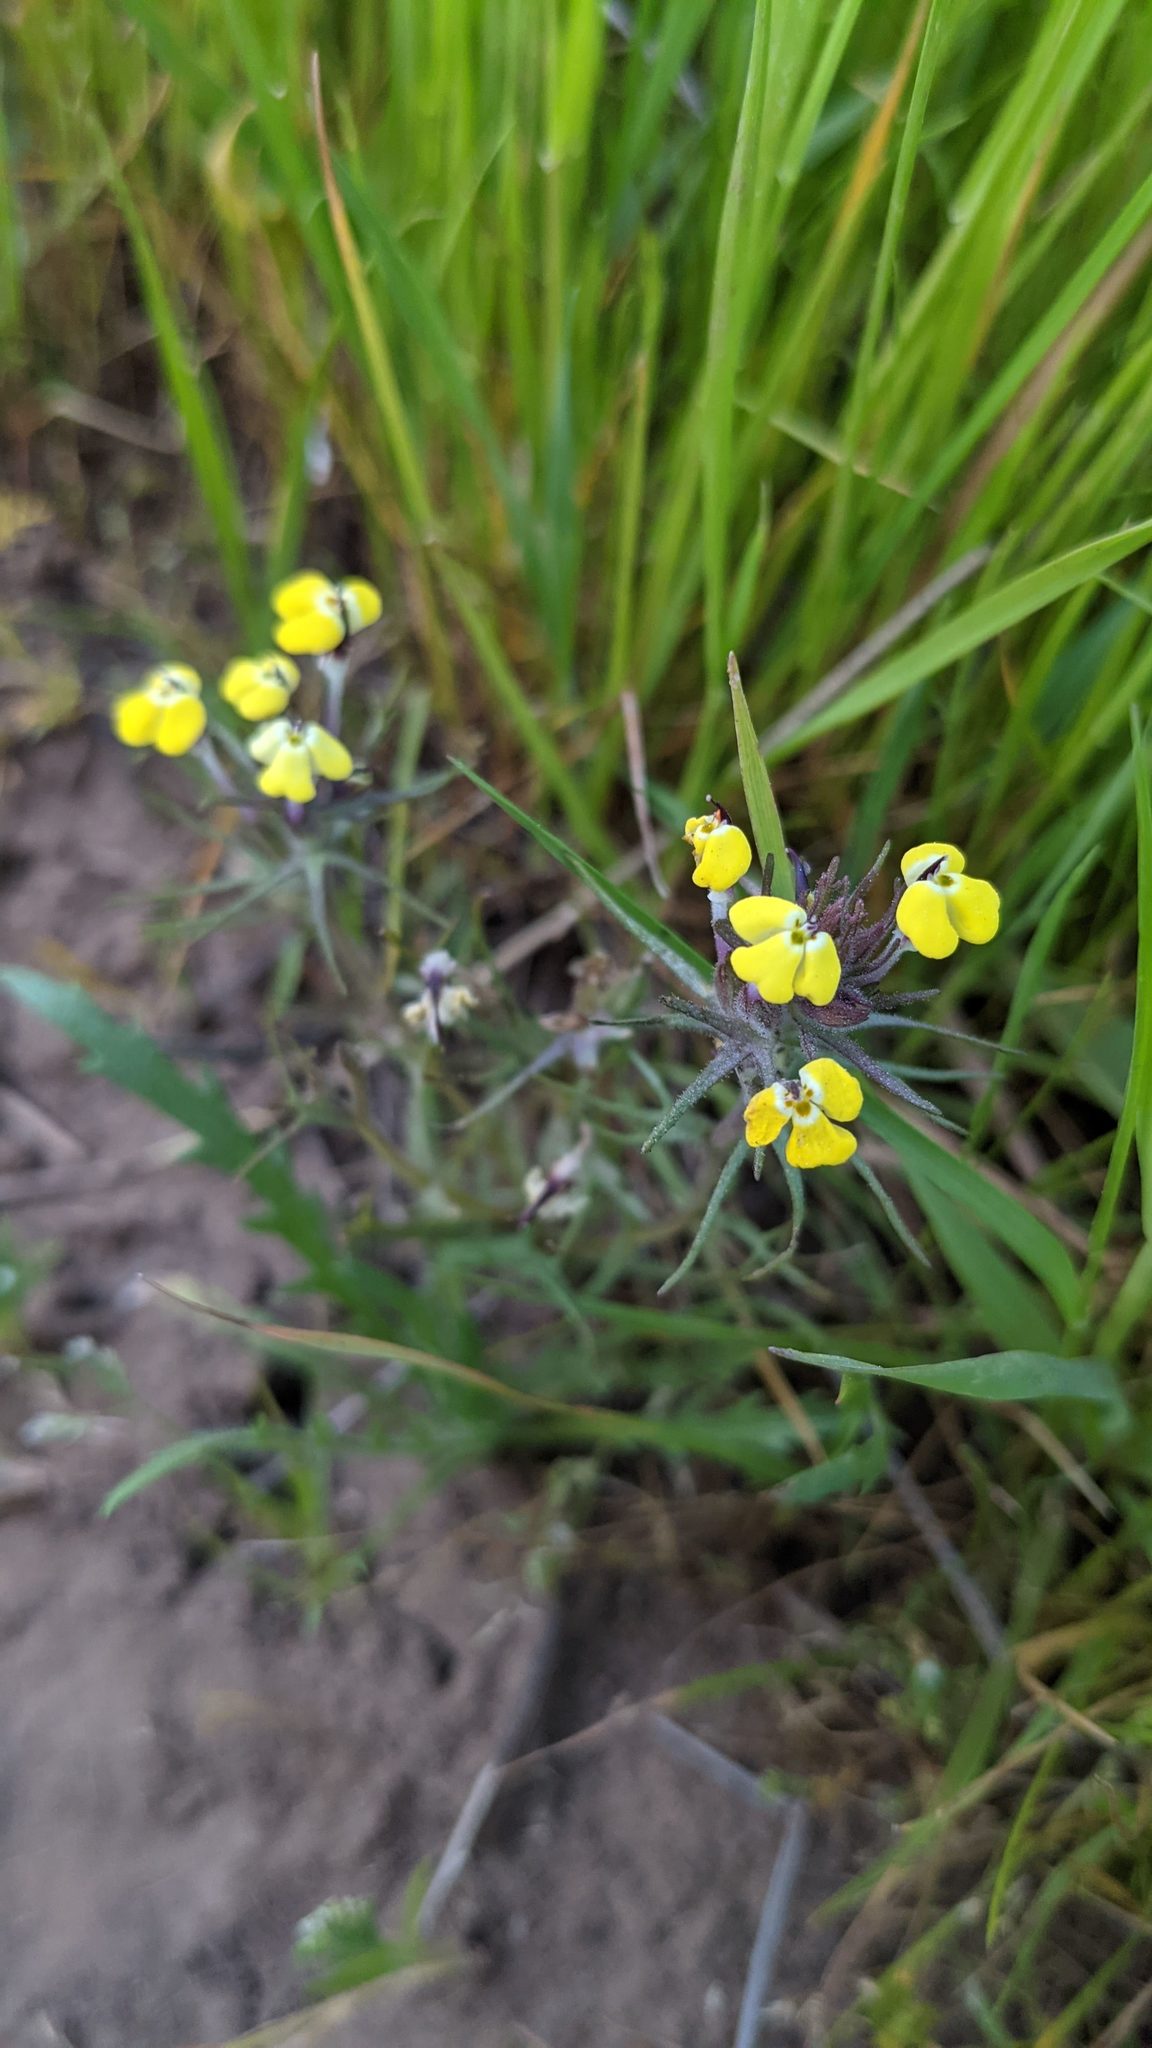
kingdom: Plantae
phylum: Tracheophyta
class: Magnoliopsida
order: Lamiales
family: Orobanchaceae
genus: Triphysaria
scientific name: Triphysaria eriantha
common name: Johnny-tuck
